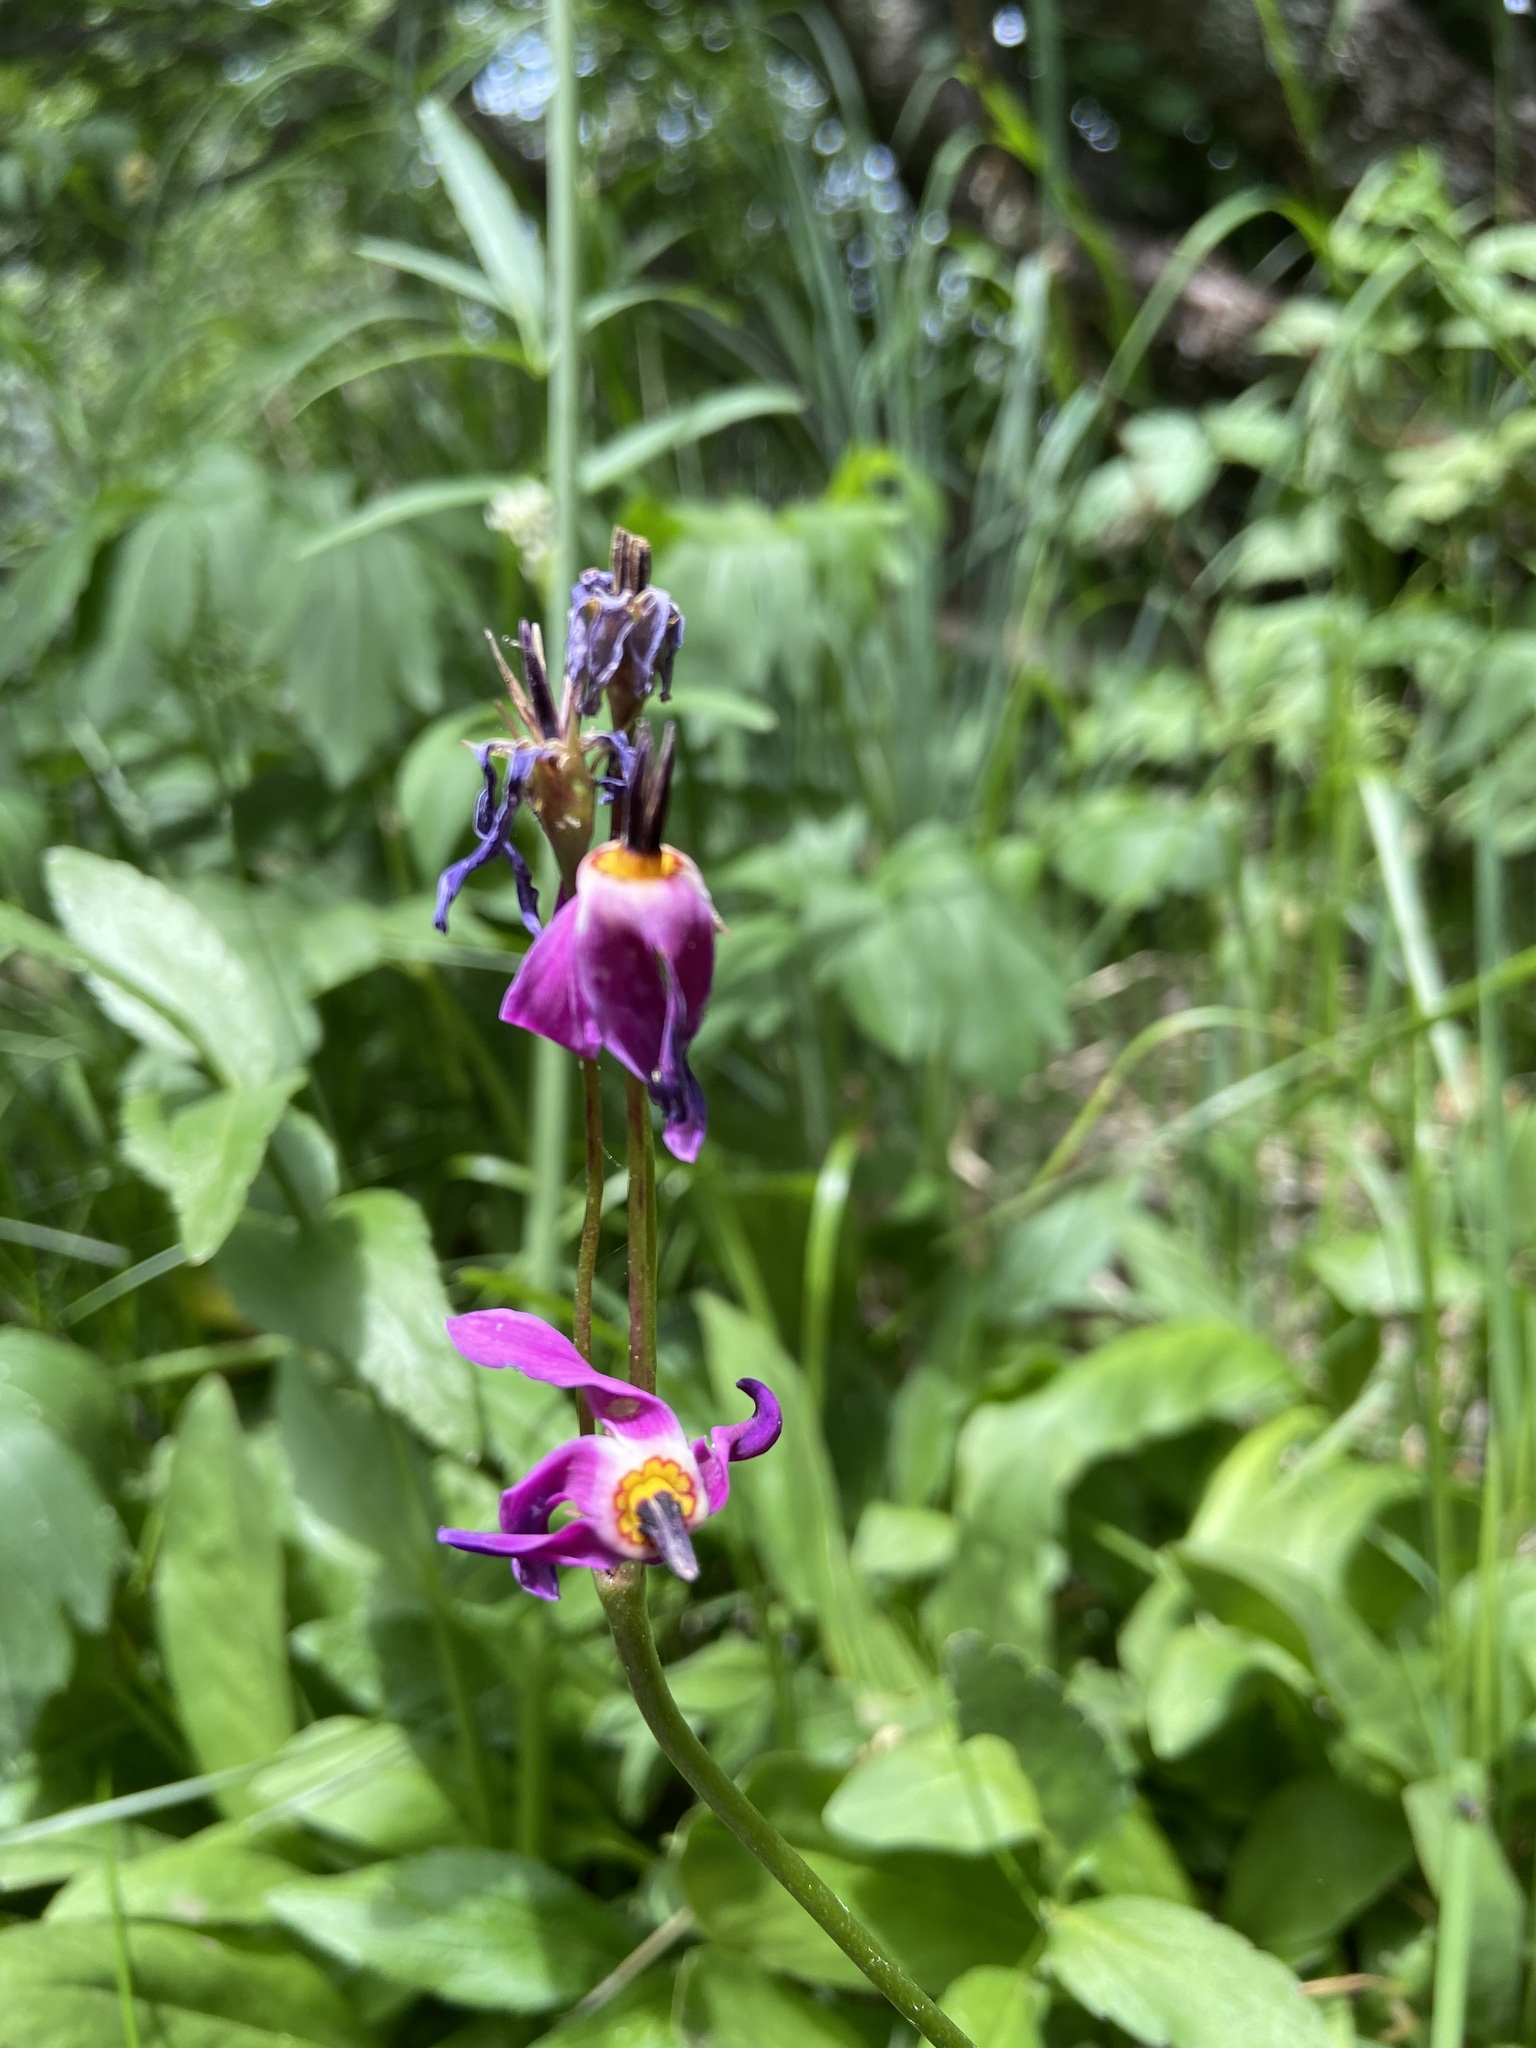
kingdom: Plantae
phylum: Tracheophyta
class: Magnoliopsida
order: Ericales
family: Primulaceae
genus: Dodecatheon
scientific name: Dodecatheon pulchellum
